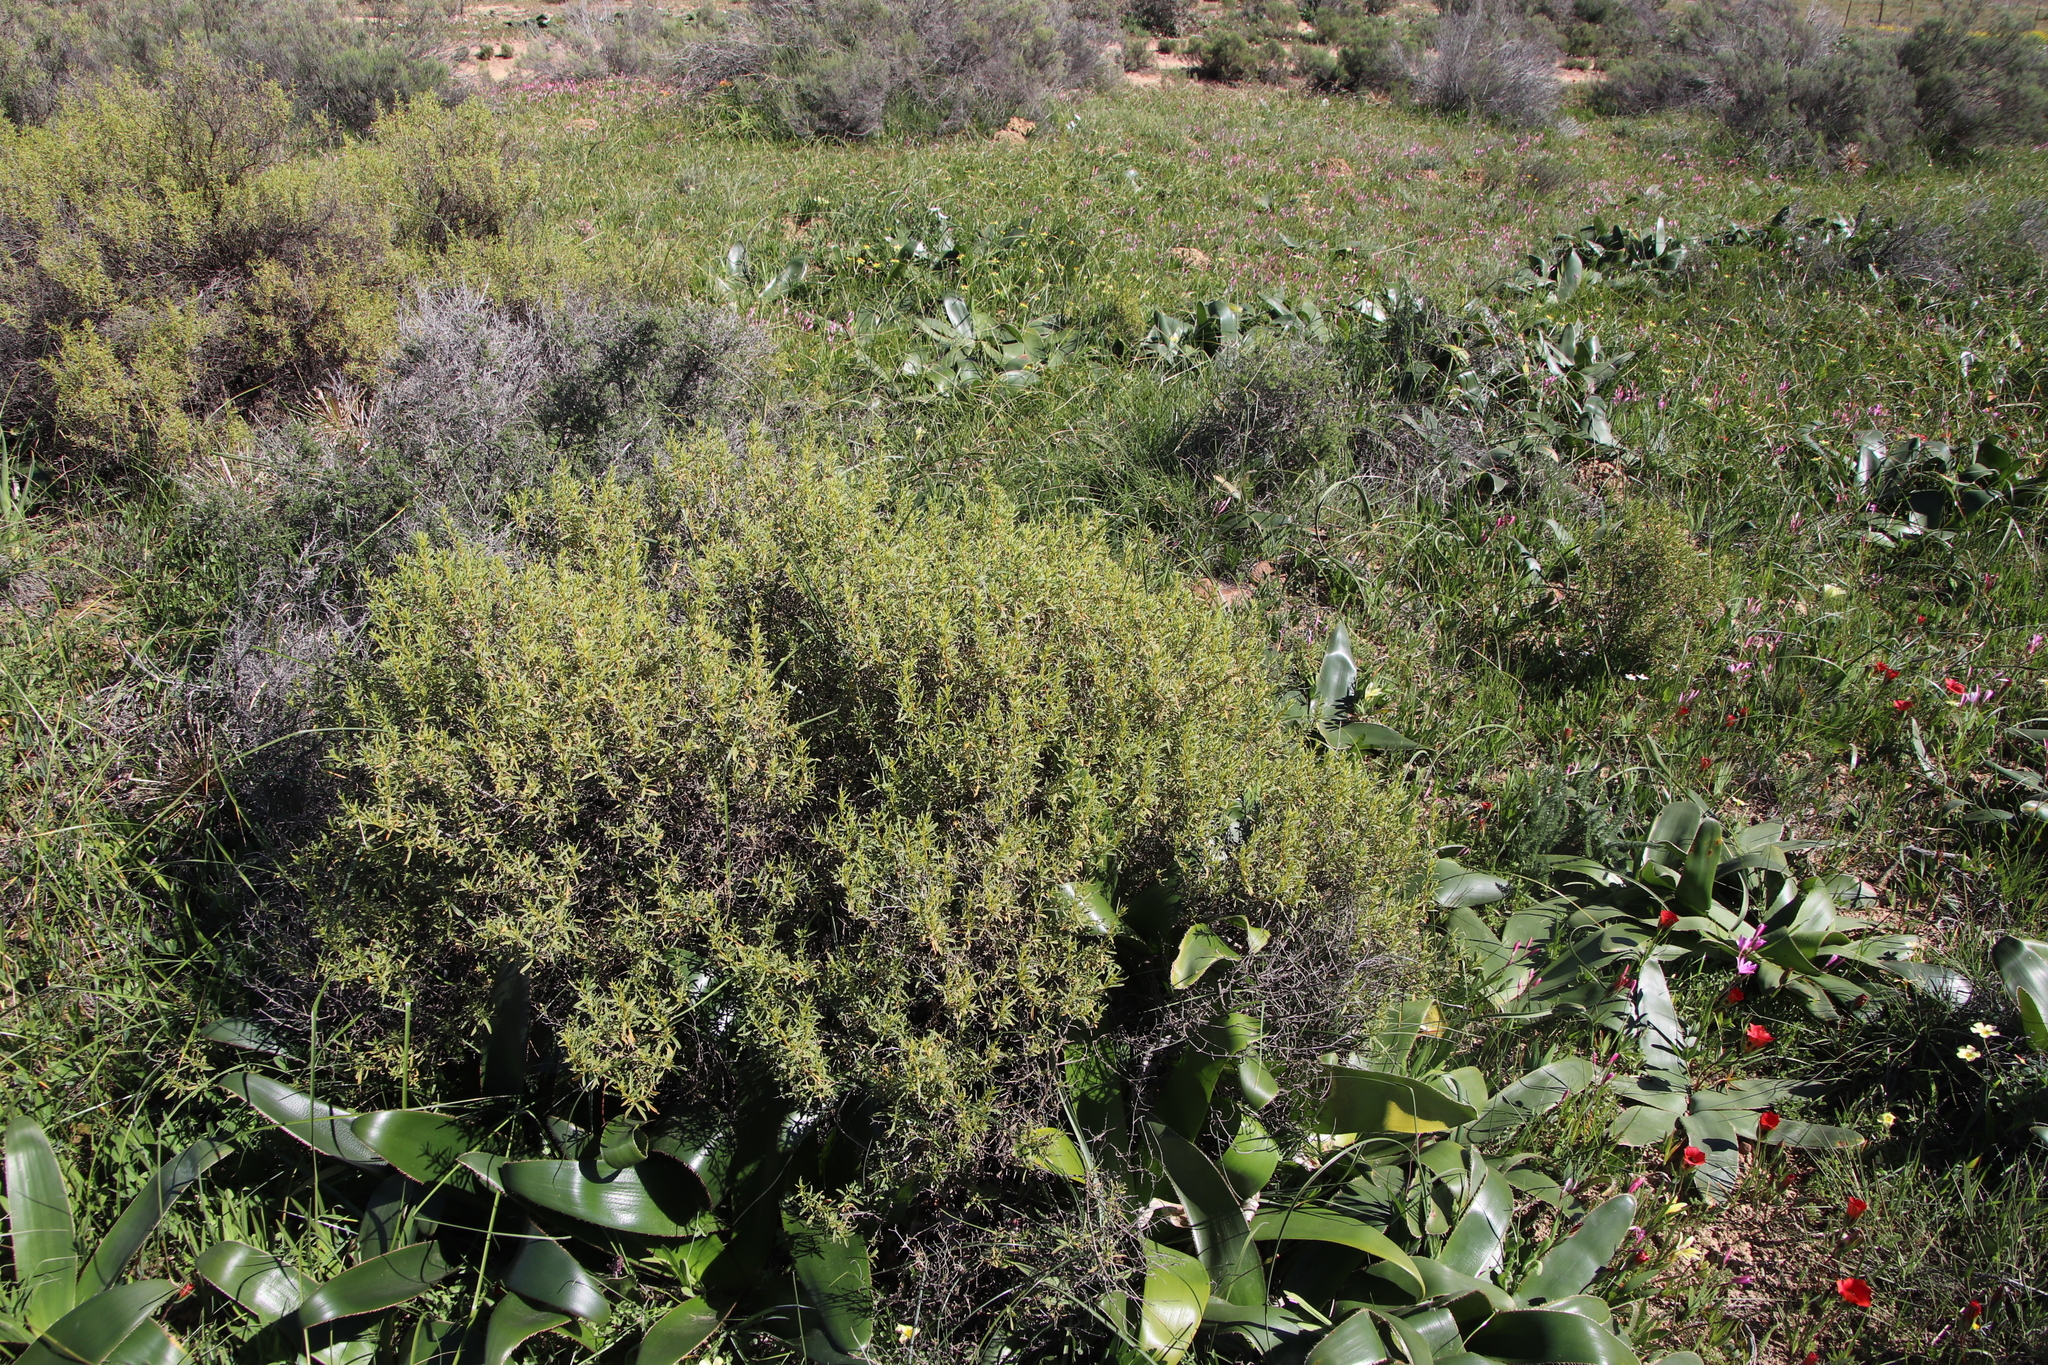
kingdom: Plantae
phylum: Tracheophyta
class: Magnoliopsida
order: Caryophyllales
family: Aizoaceae
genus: Aizoon
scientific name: Aizoon africanum
